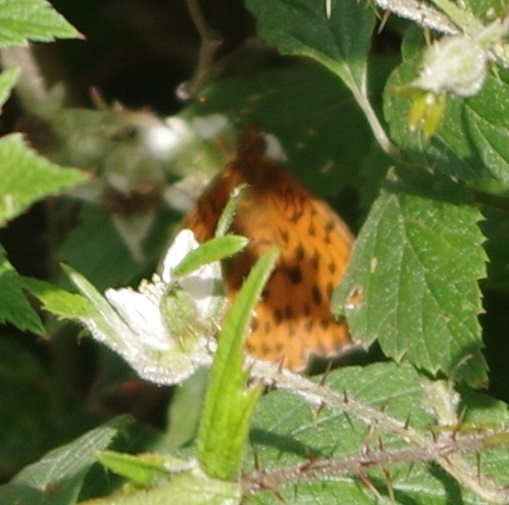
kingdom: Animalia
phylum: Arthropoda
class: Insecta
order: Lepidoptera
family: Nymphalidae
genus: Brenthis
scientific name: Brenthis daphne
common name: Marbled fritillary
